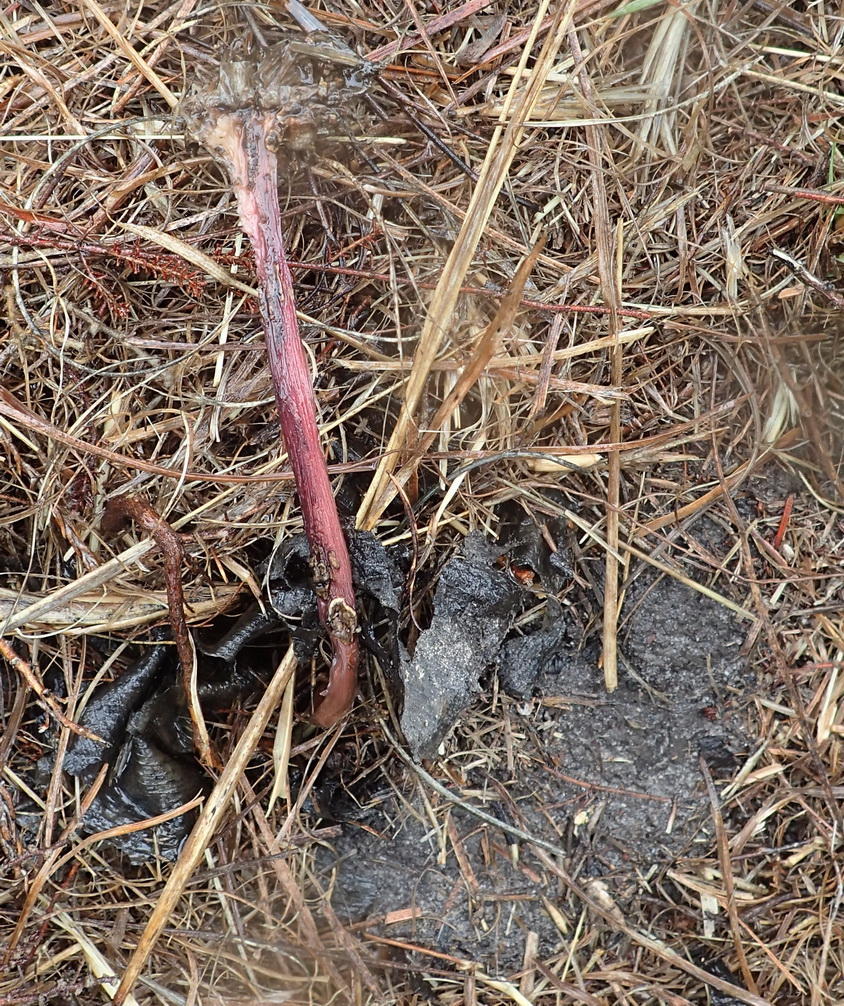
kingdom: Plantae
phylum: Tracheophyta
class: Liliopsida
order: Asparagales
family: Amaryllidaceae
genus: Haemanthus
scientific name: Haemanthus sanguineus
